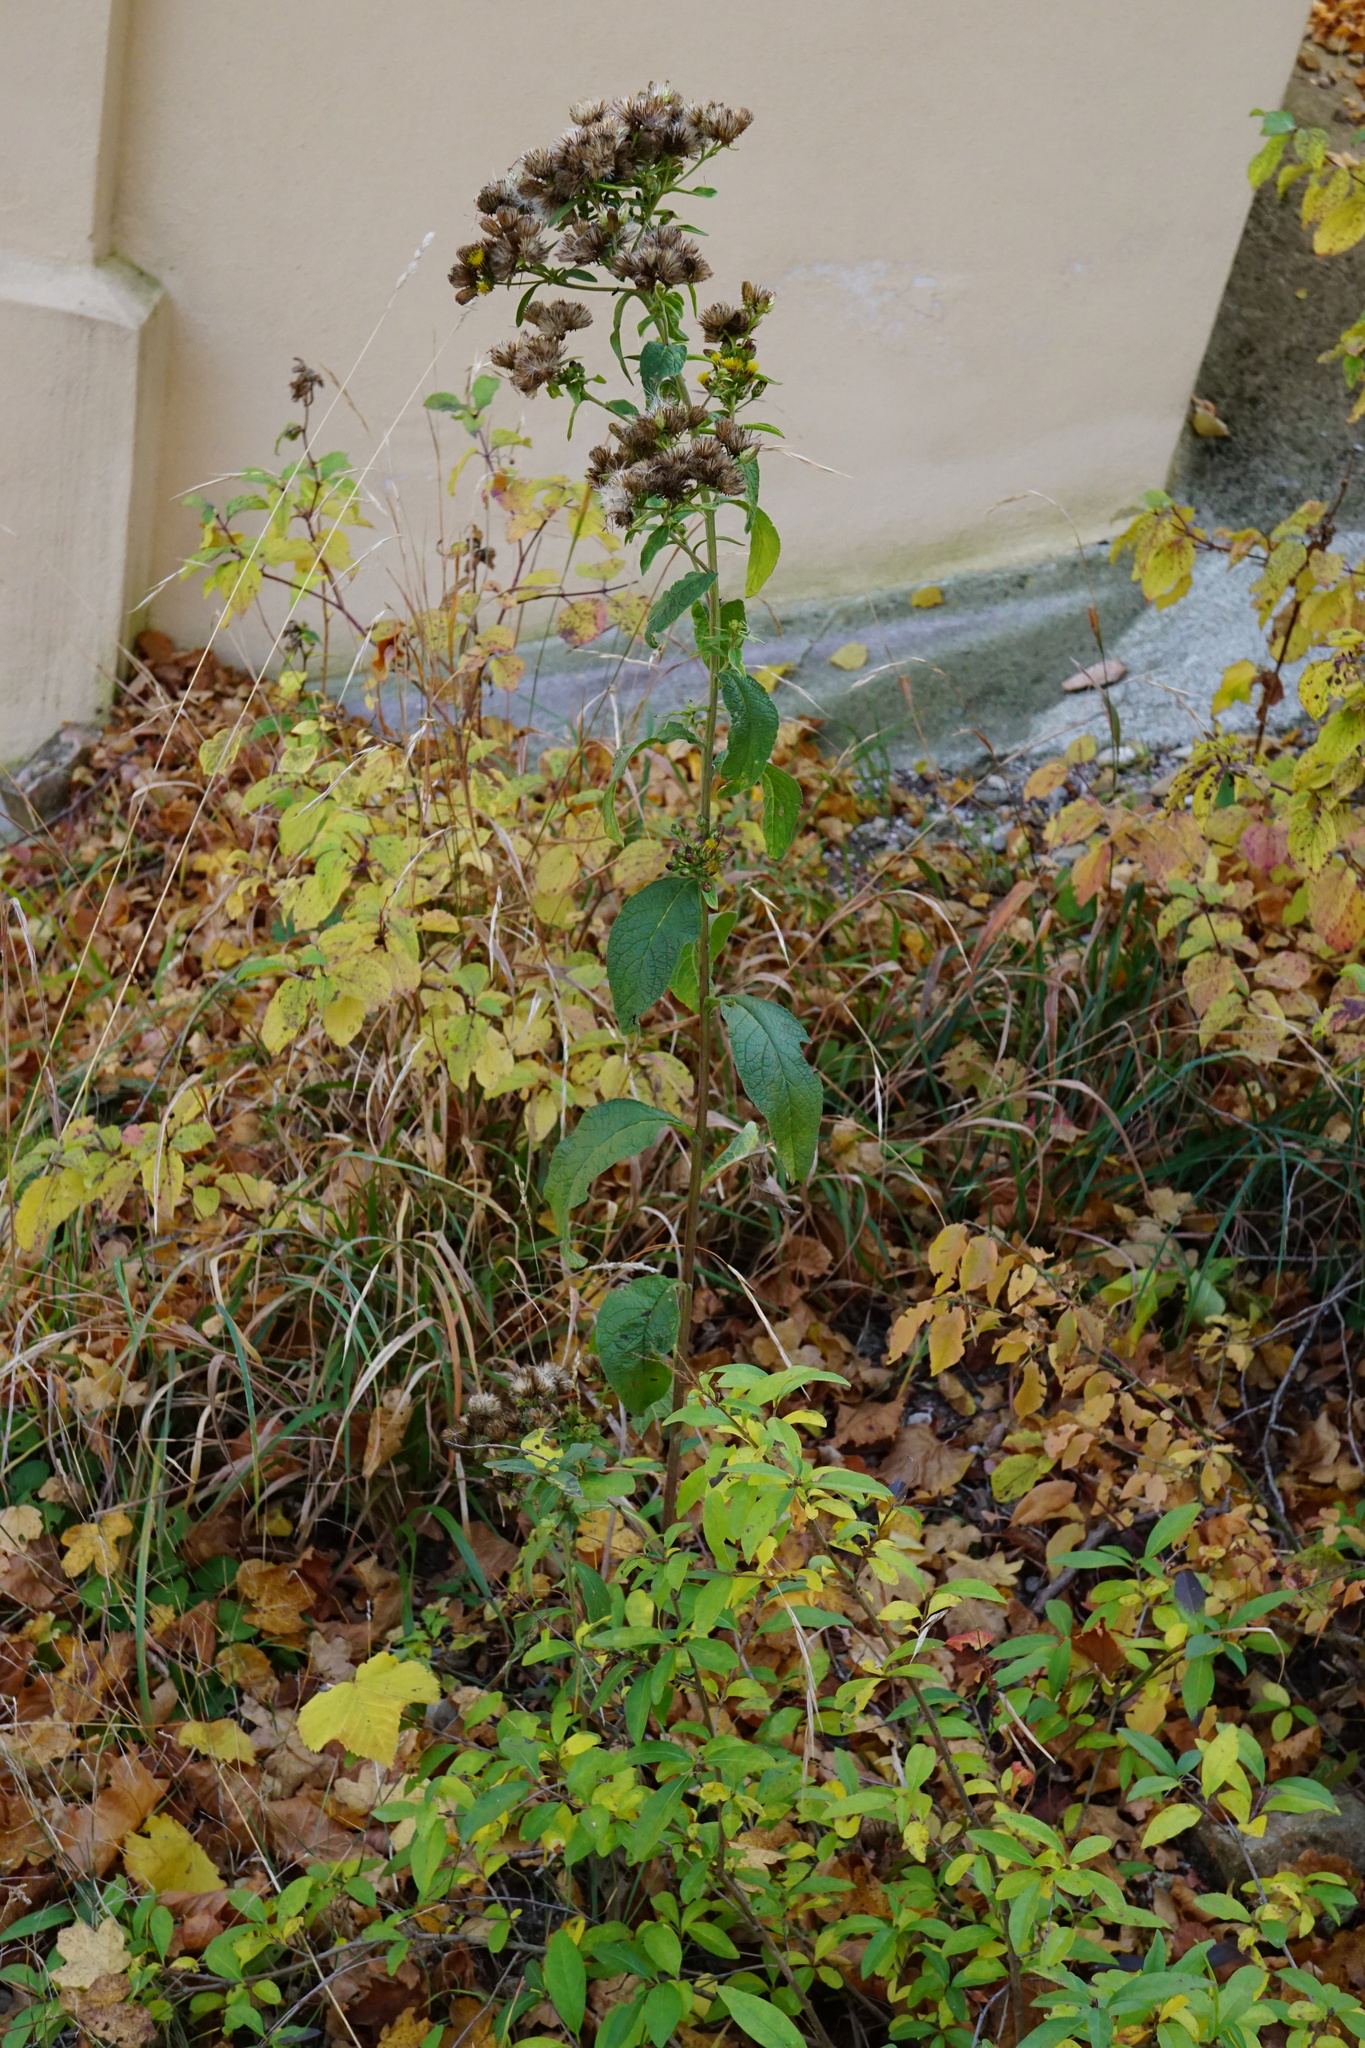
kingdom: Plantae
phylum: Tracheophyta
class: Magnoliopsida
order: Asterales
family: Asteraceae
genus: Pentanema
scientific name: Pentanema squarrosum
